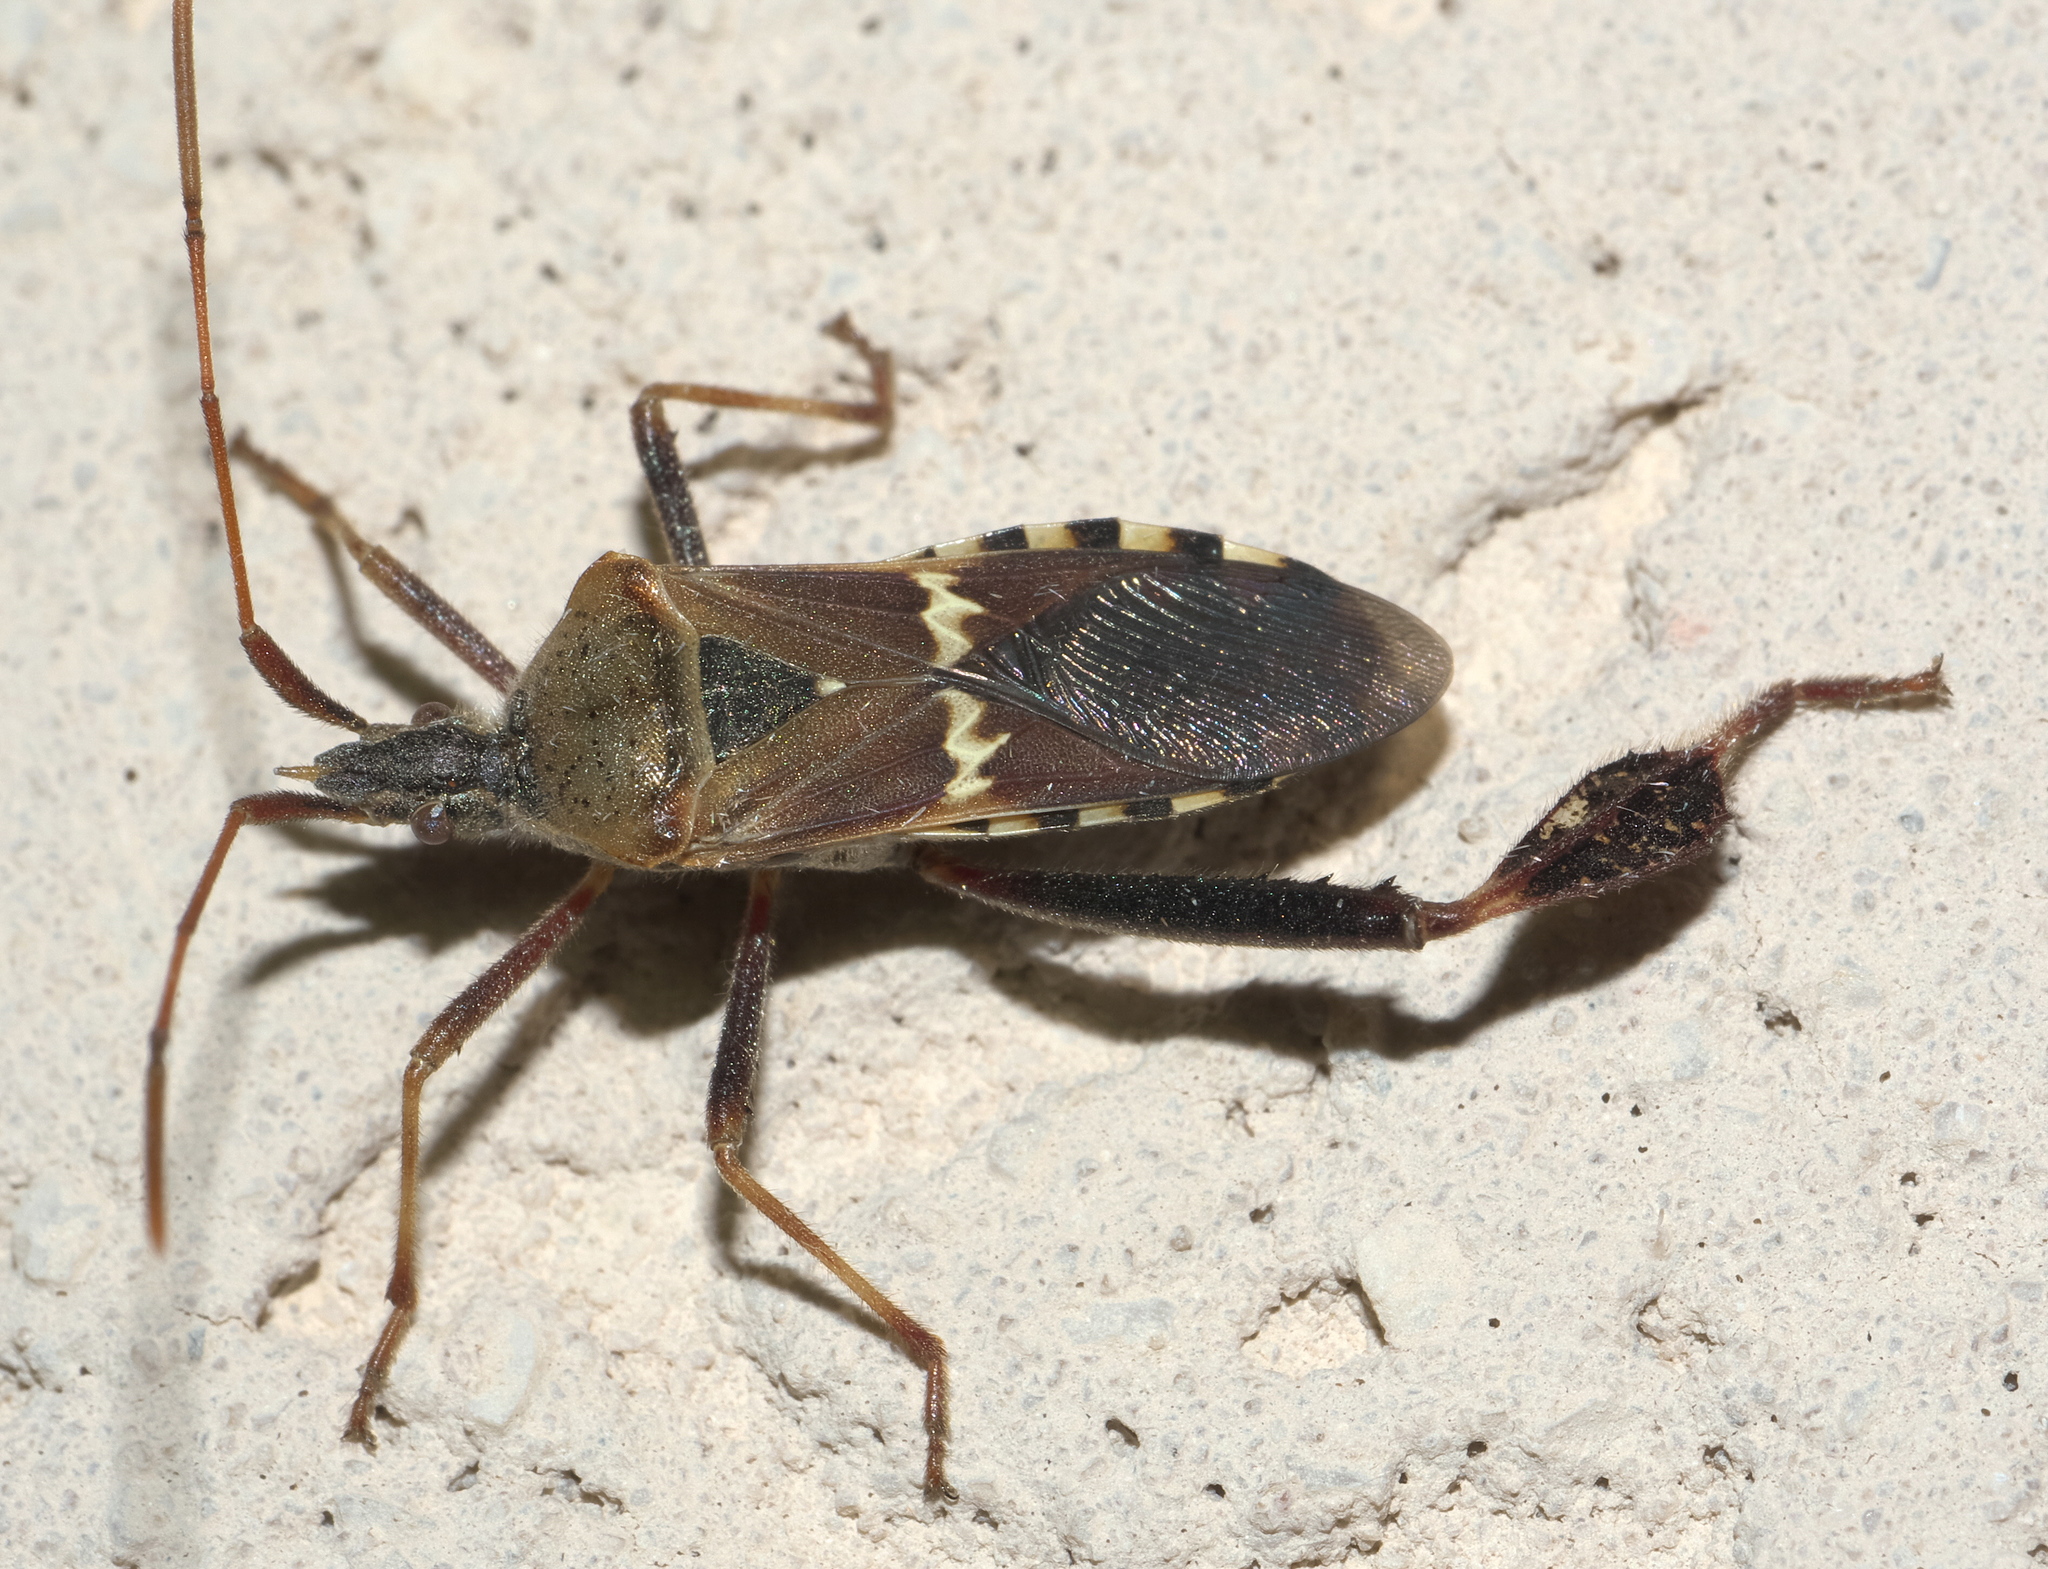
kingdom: Animalia
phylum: Arthropoda
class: Insecta
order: Hemiptera
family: Coreidae
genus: Leptoglossus
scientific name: Leptoglossus clypealis
